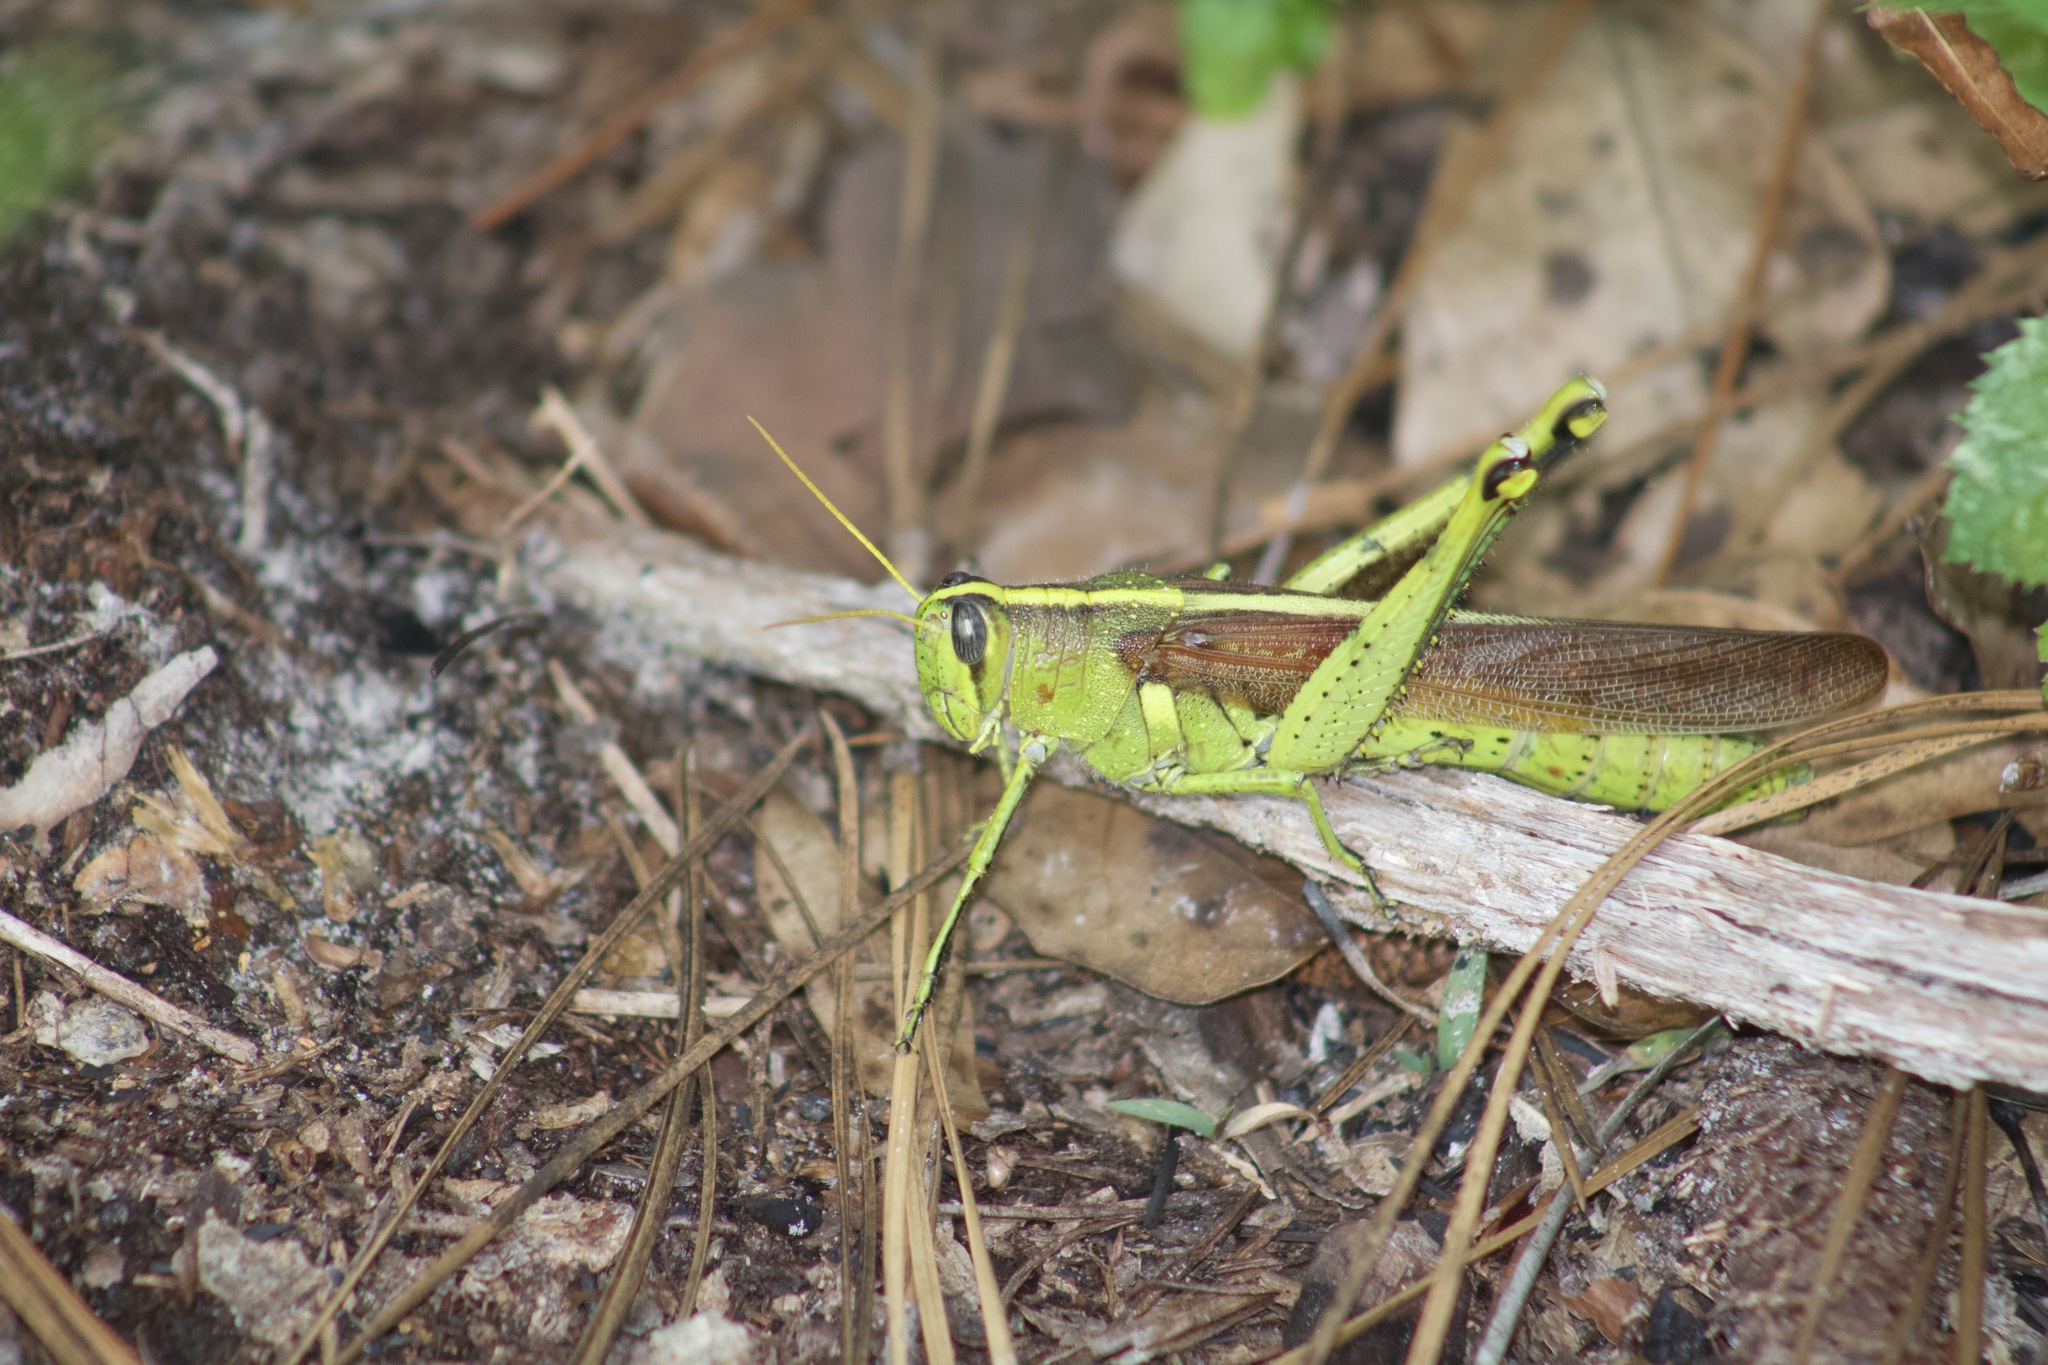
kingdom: Animalia
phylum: Arthropoda
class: Insecta
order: Orthoptera
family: Acrididae
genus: Schistocerca
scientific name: Schistocerca obscura
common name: Obscure bird grasshopper
